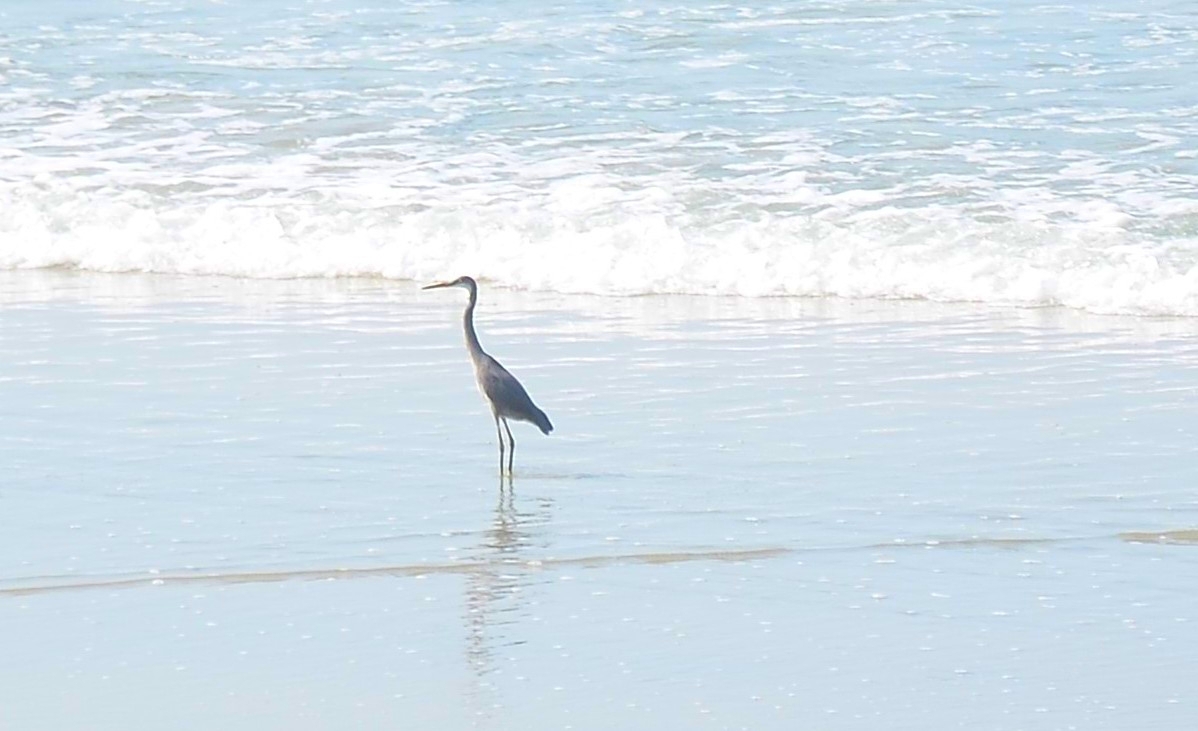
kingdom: Animalia
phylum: Chordata
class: Aves
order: Pelecaniformes
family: Ardeidae
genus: Egretta
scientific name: Egretta gularis
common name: Western reef-heron
